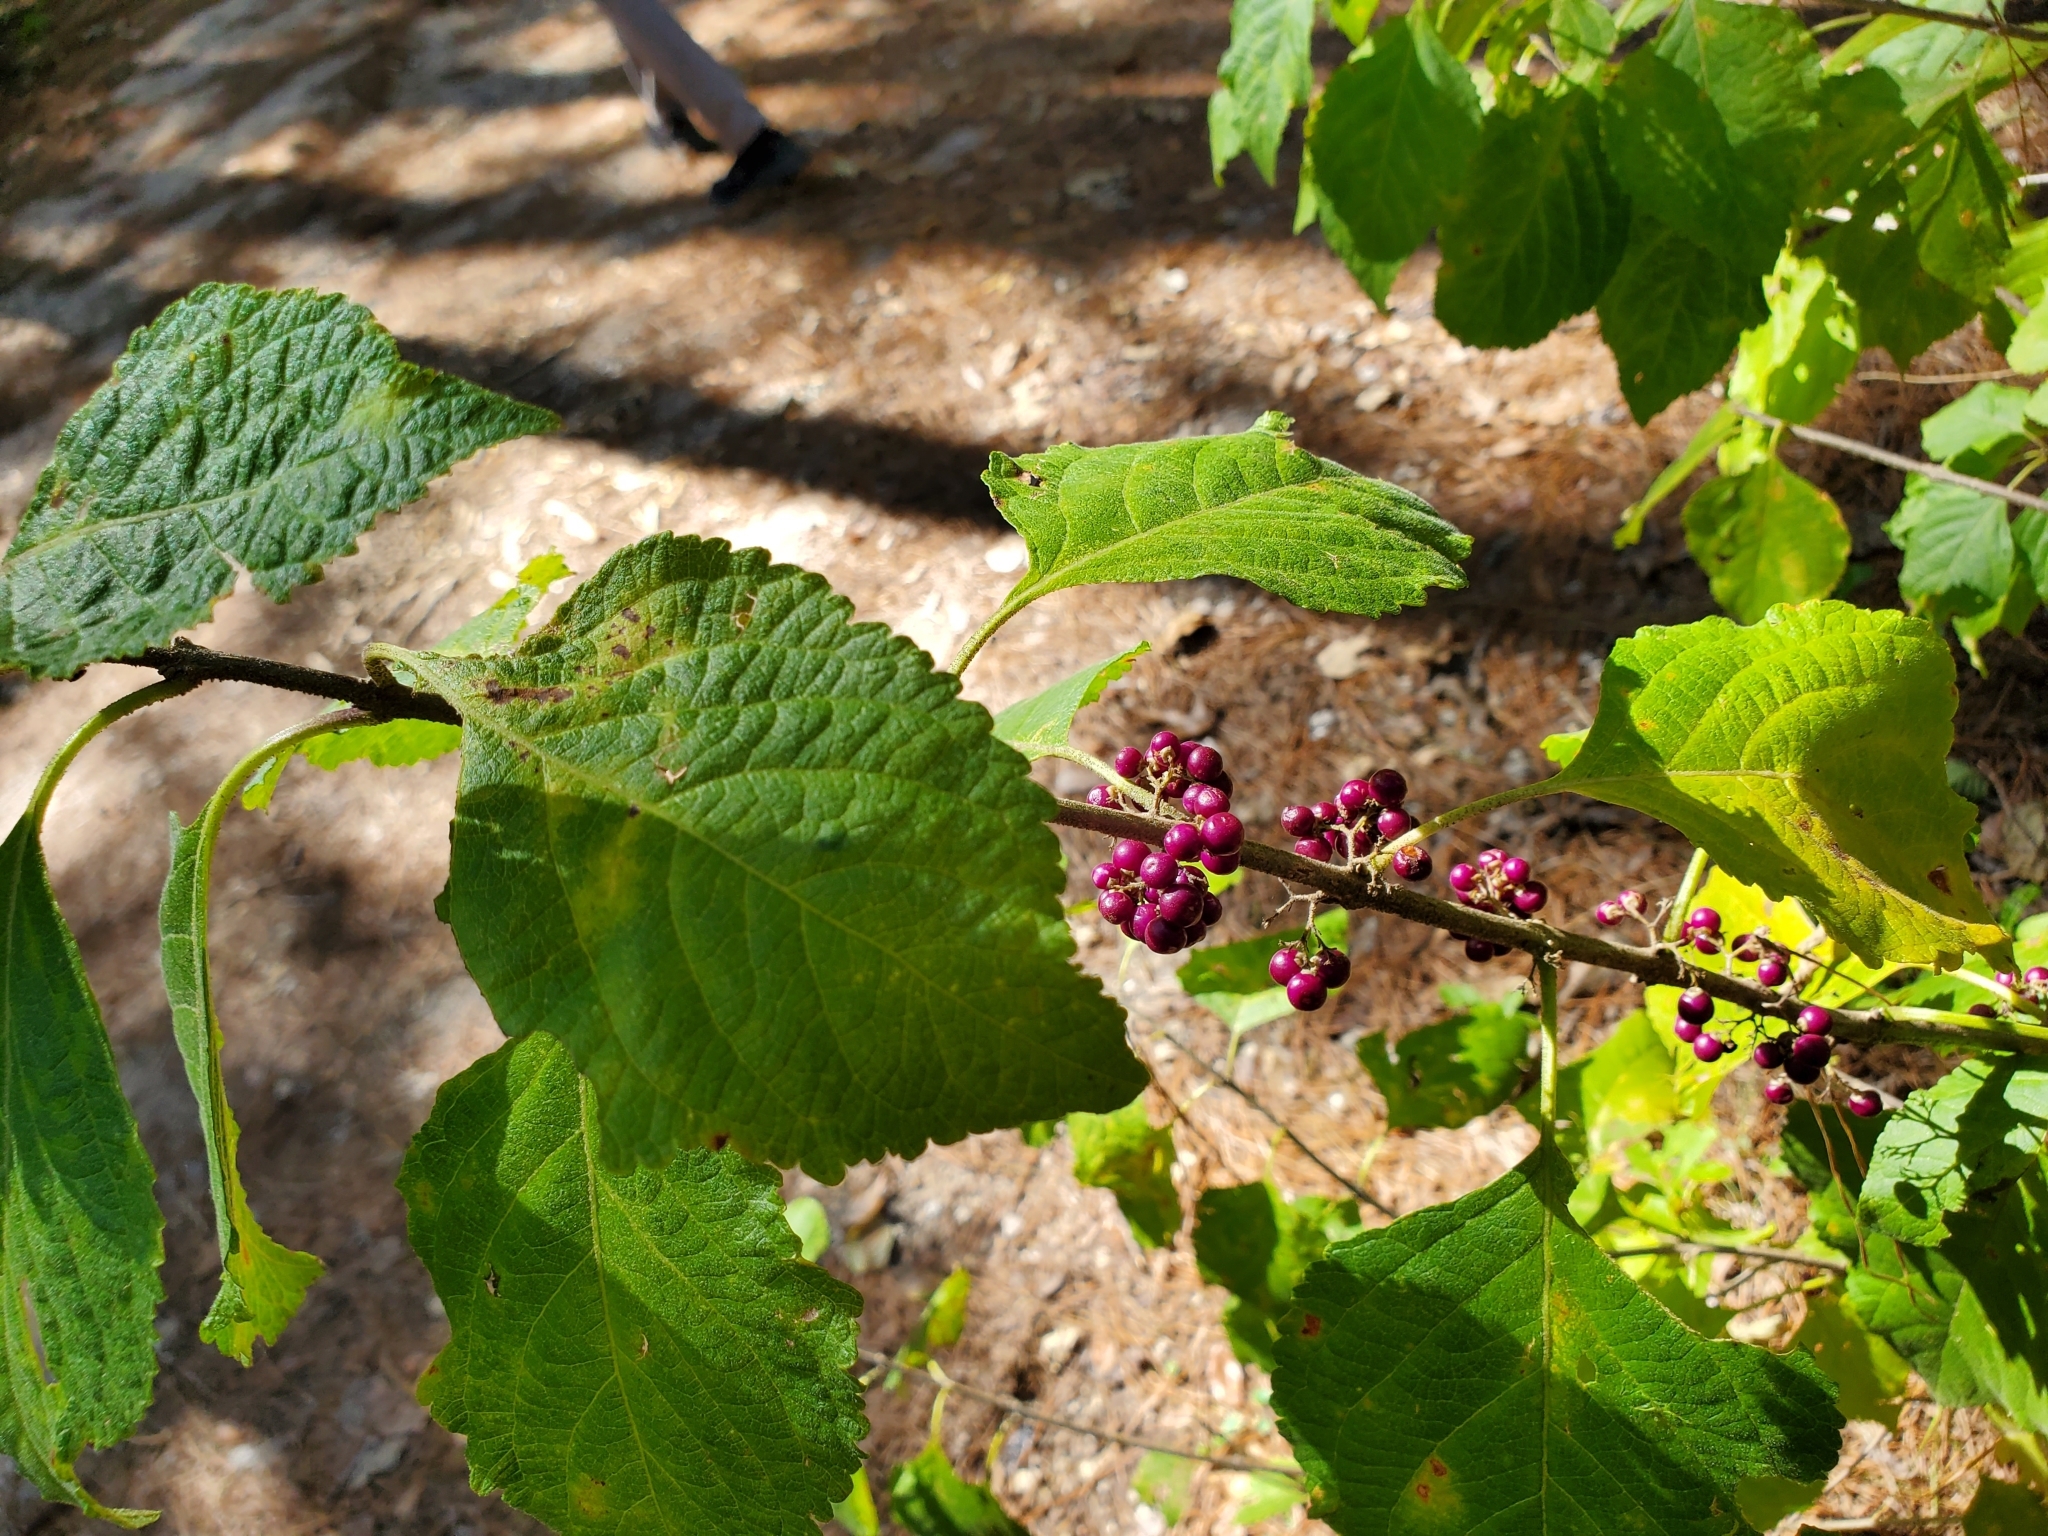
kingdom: Plantae
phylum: Tracheophyta
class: Magnoliopsida
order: Lamiales
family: Lamiaceae
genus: Callicarpa
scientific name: Callicarpa americana
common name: American beautyberry
